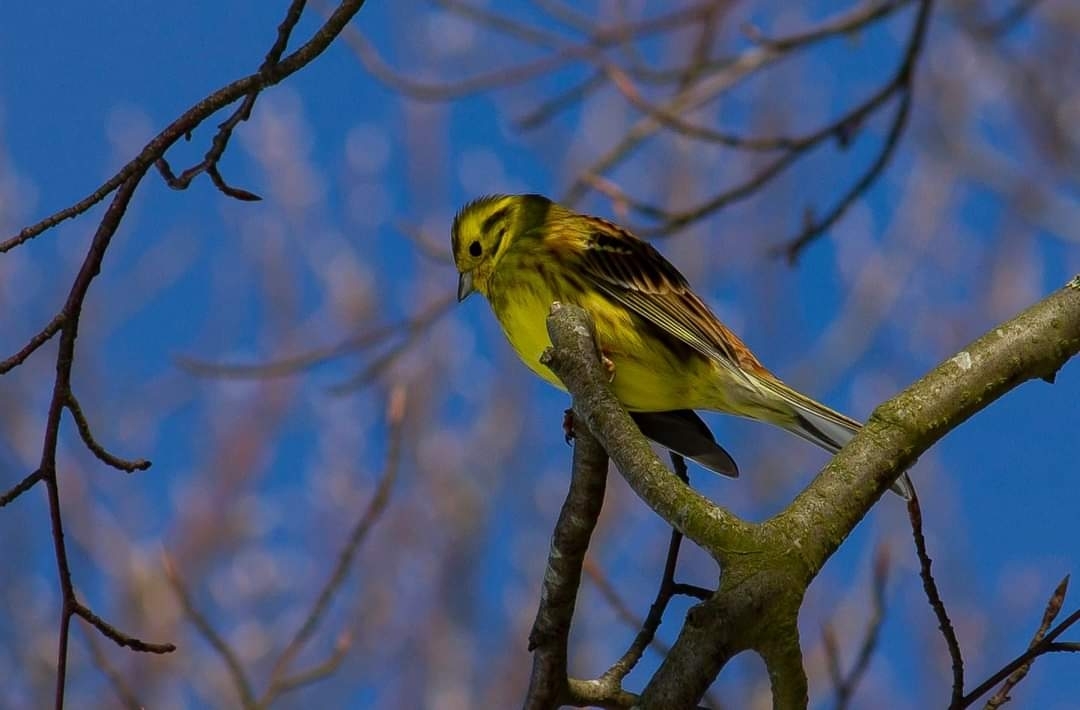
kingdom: Animalia
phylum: Chordata
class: Aves
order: Passeriformes
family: Emberizidae
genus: Emberiza
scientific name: Emberiza citrinella
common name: Yellowhammer
